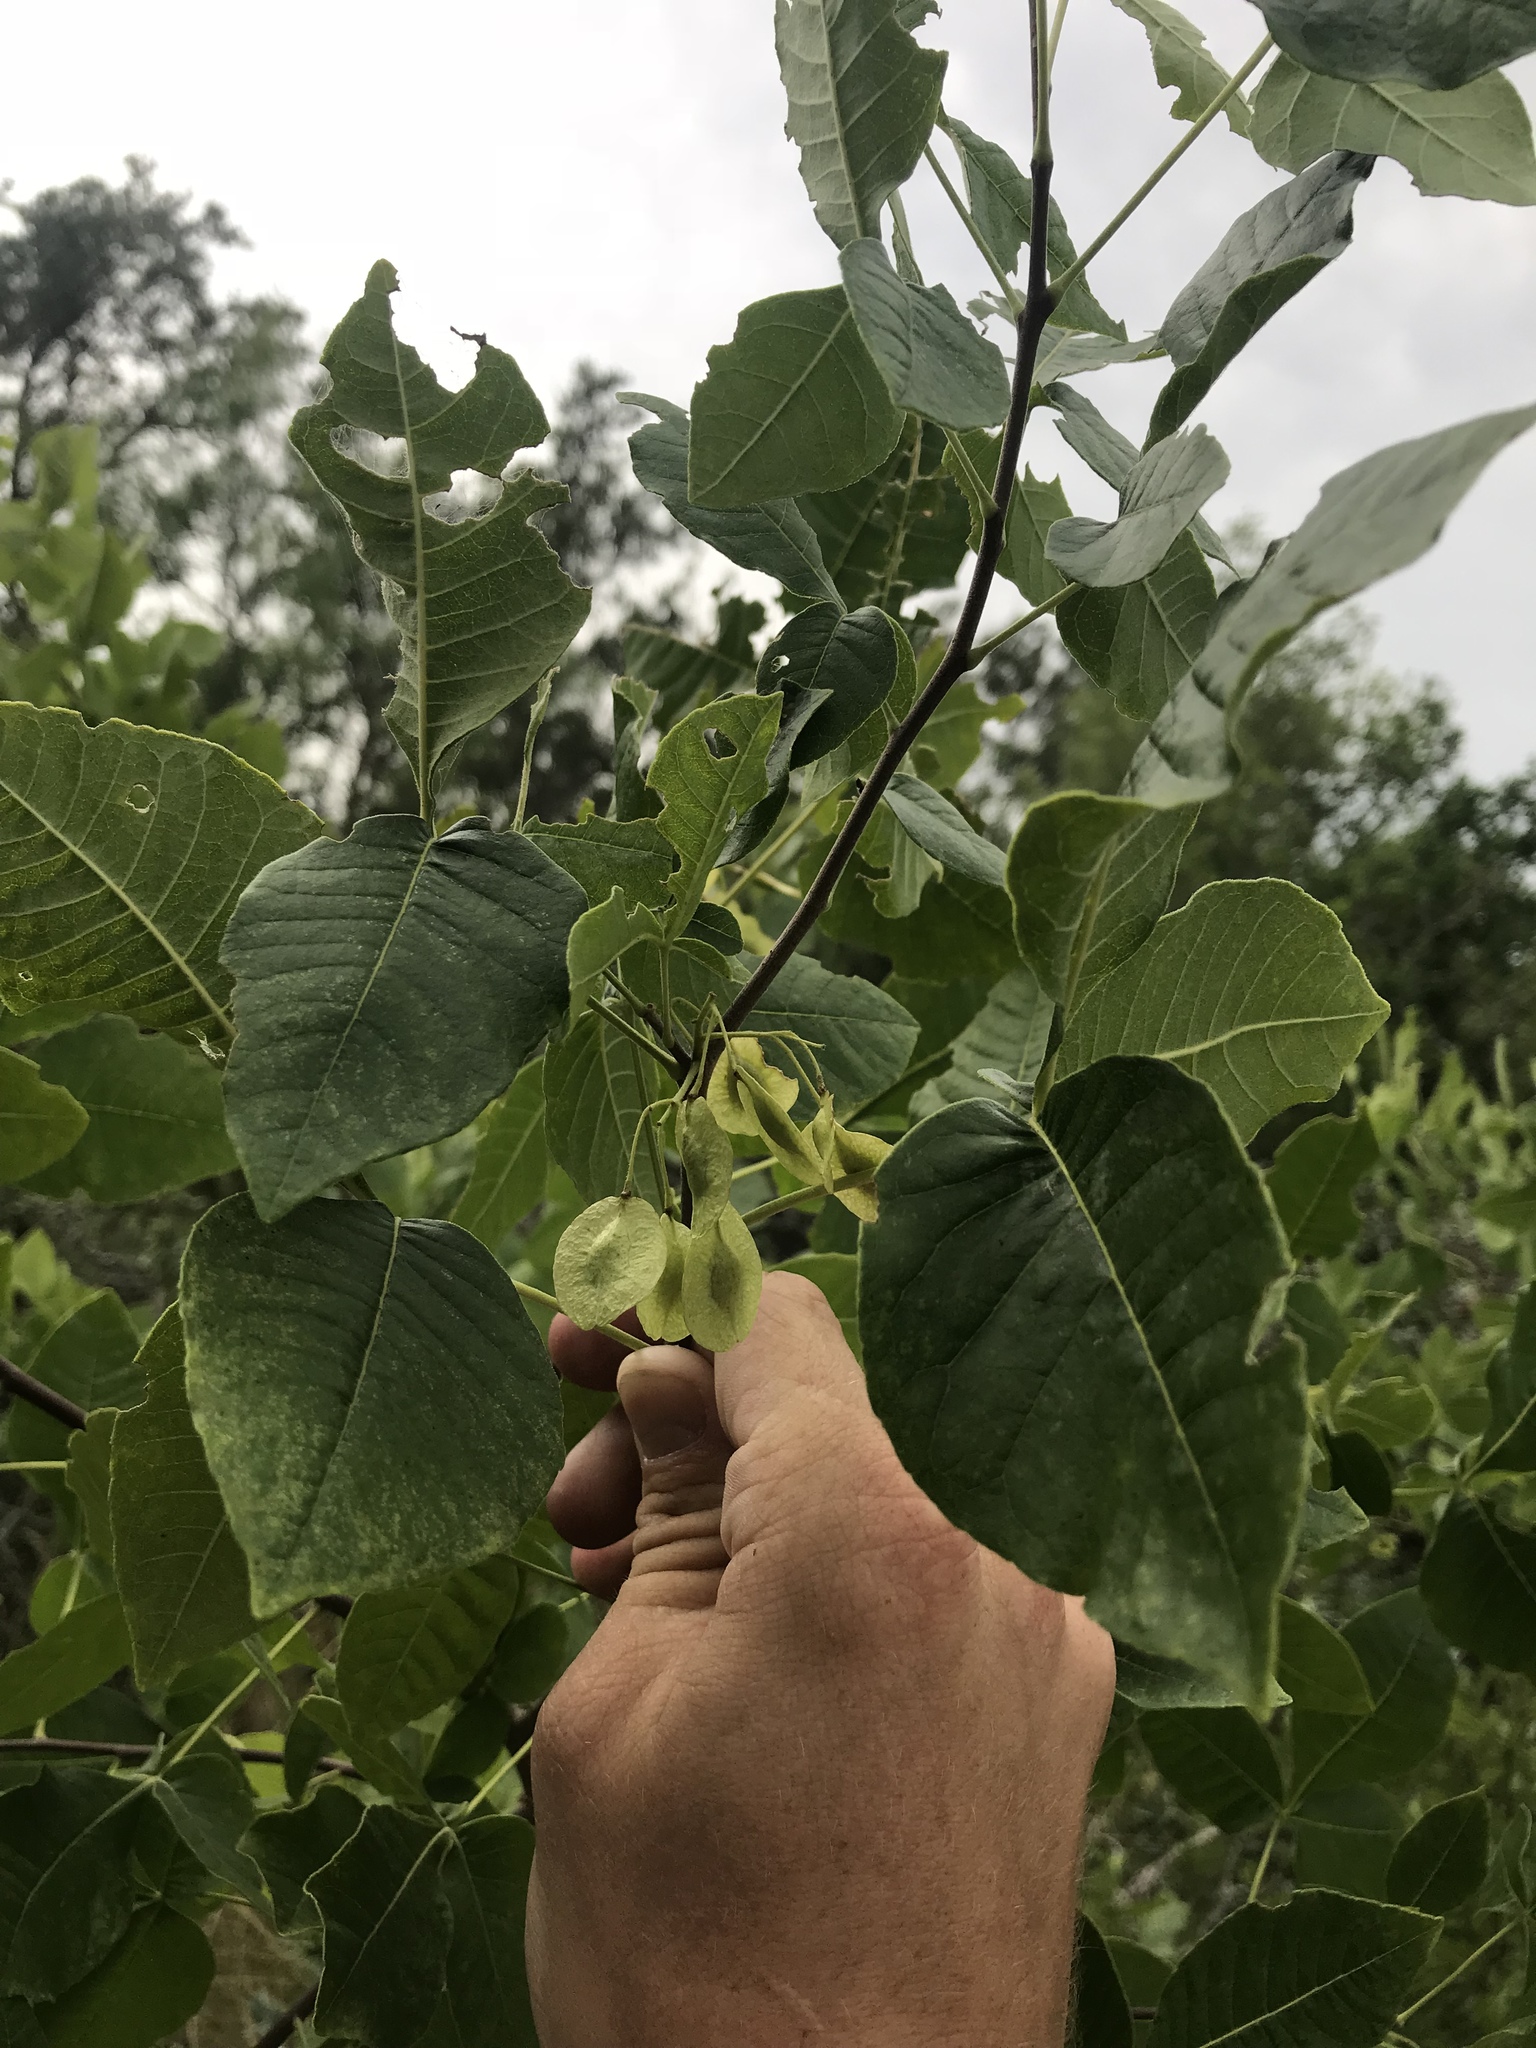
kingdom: Plantae
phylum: Tracheophyta
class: Magnoliopsida
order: Sapindales
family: Rutaceae
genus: Ptelea
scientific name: Ptelea trifoliata
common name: Common hop-tree
